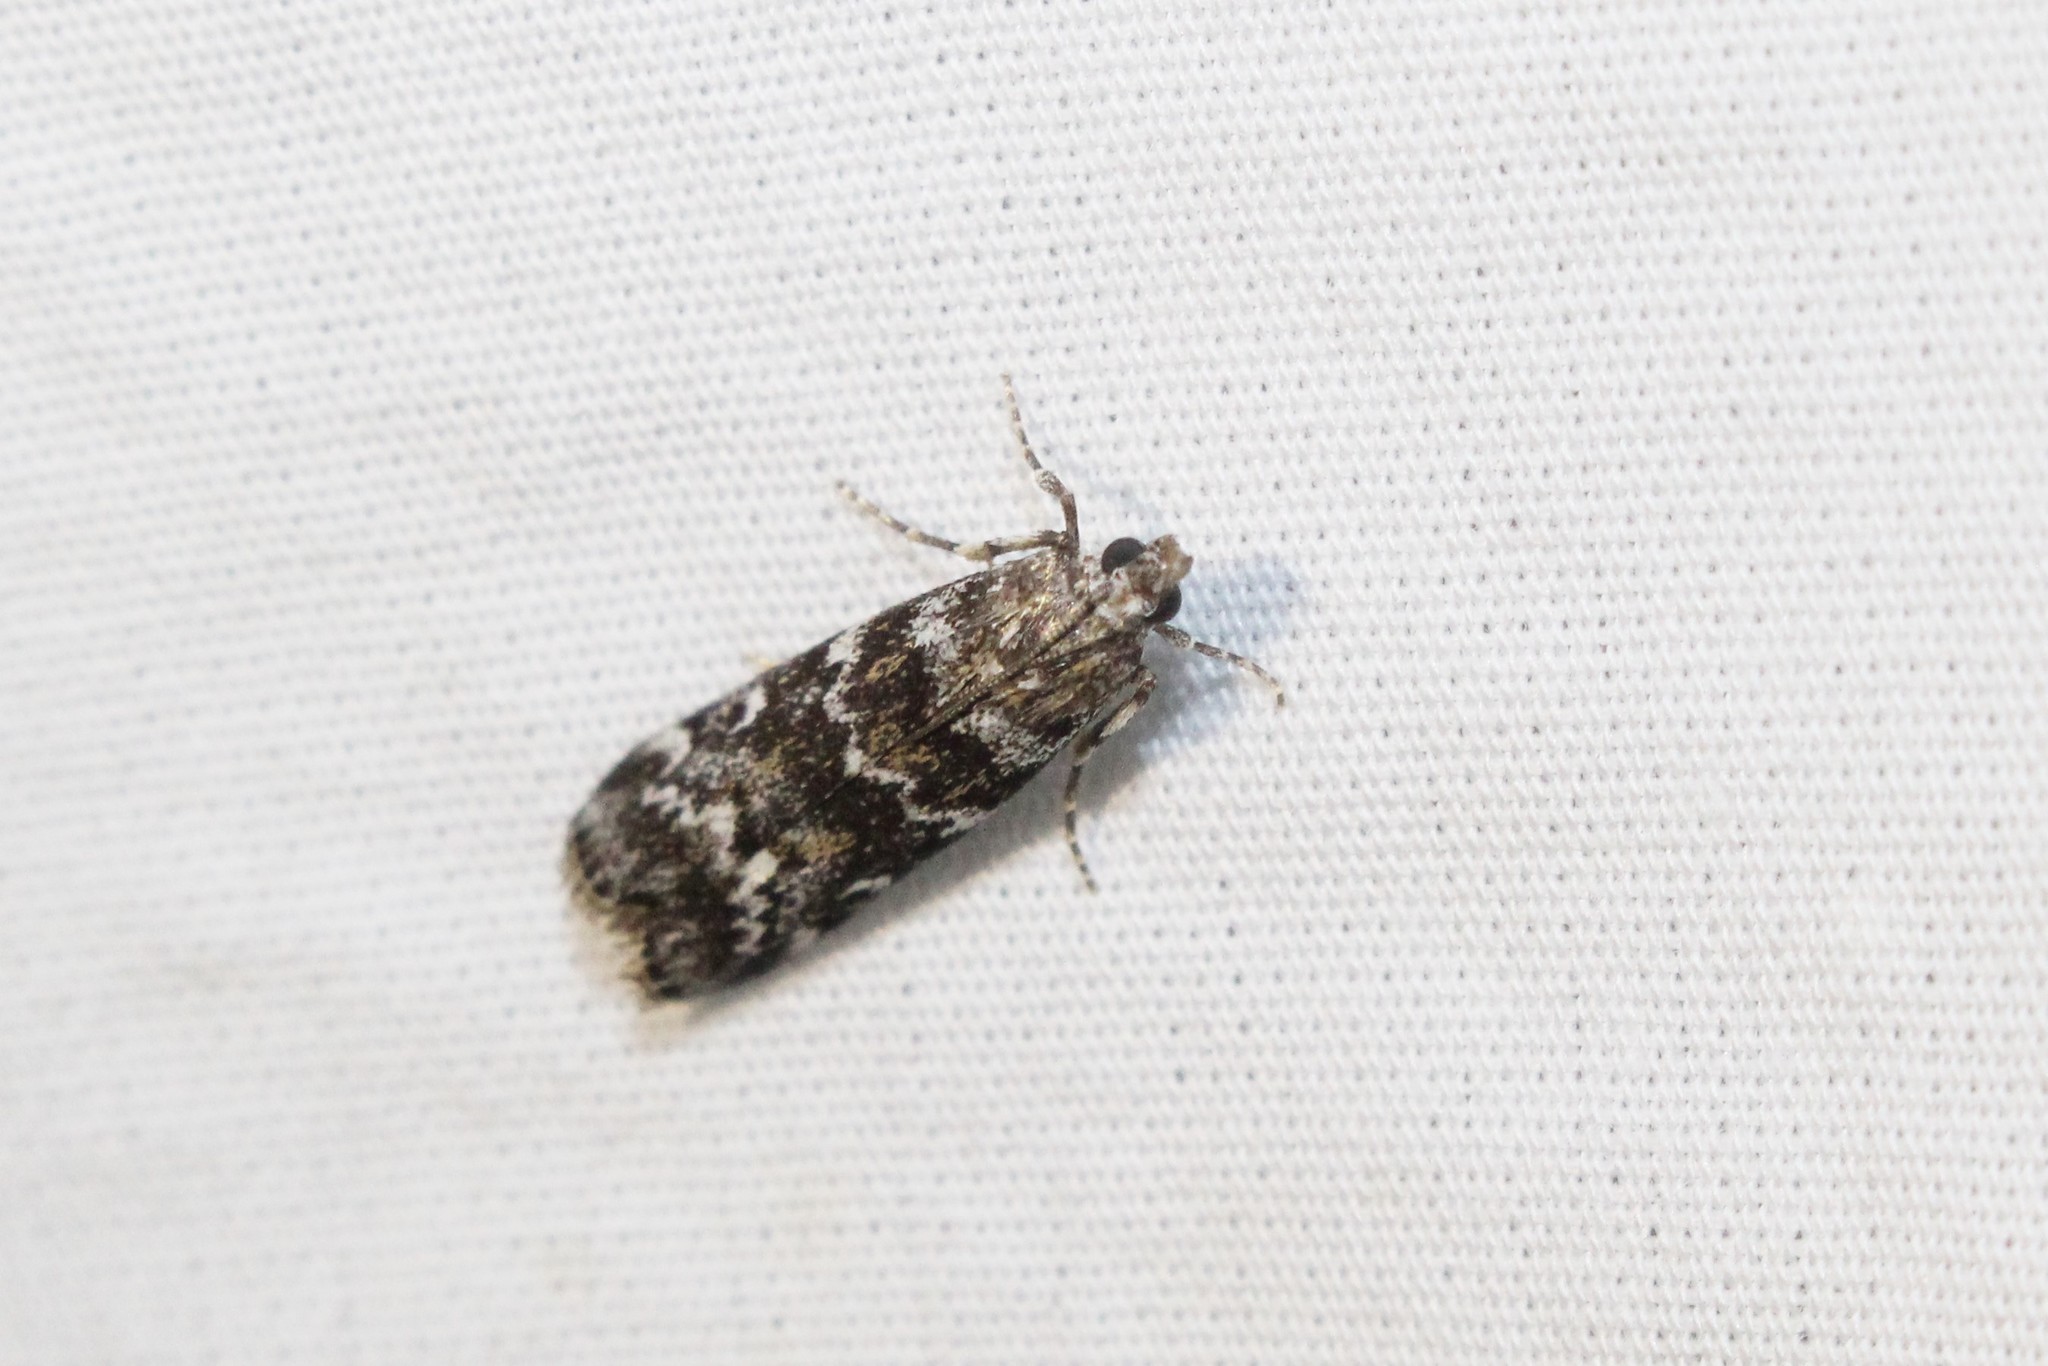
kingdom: Animalia
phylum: Arthropoda
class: Insecta
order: Lepidoptera
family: Pyralidae
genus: Dioryctria
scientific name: Dioryctria reniculelloides
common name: Spruce coneworm moth
